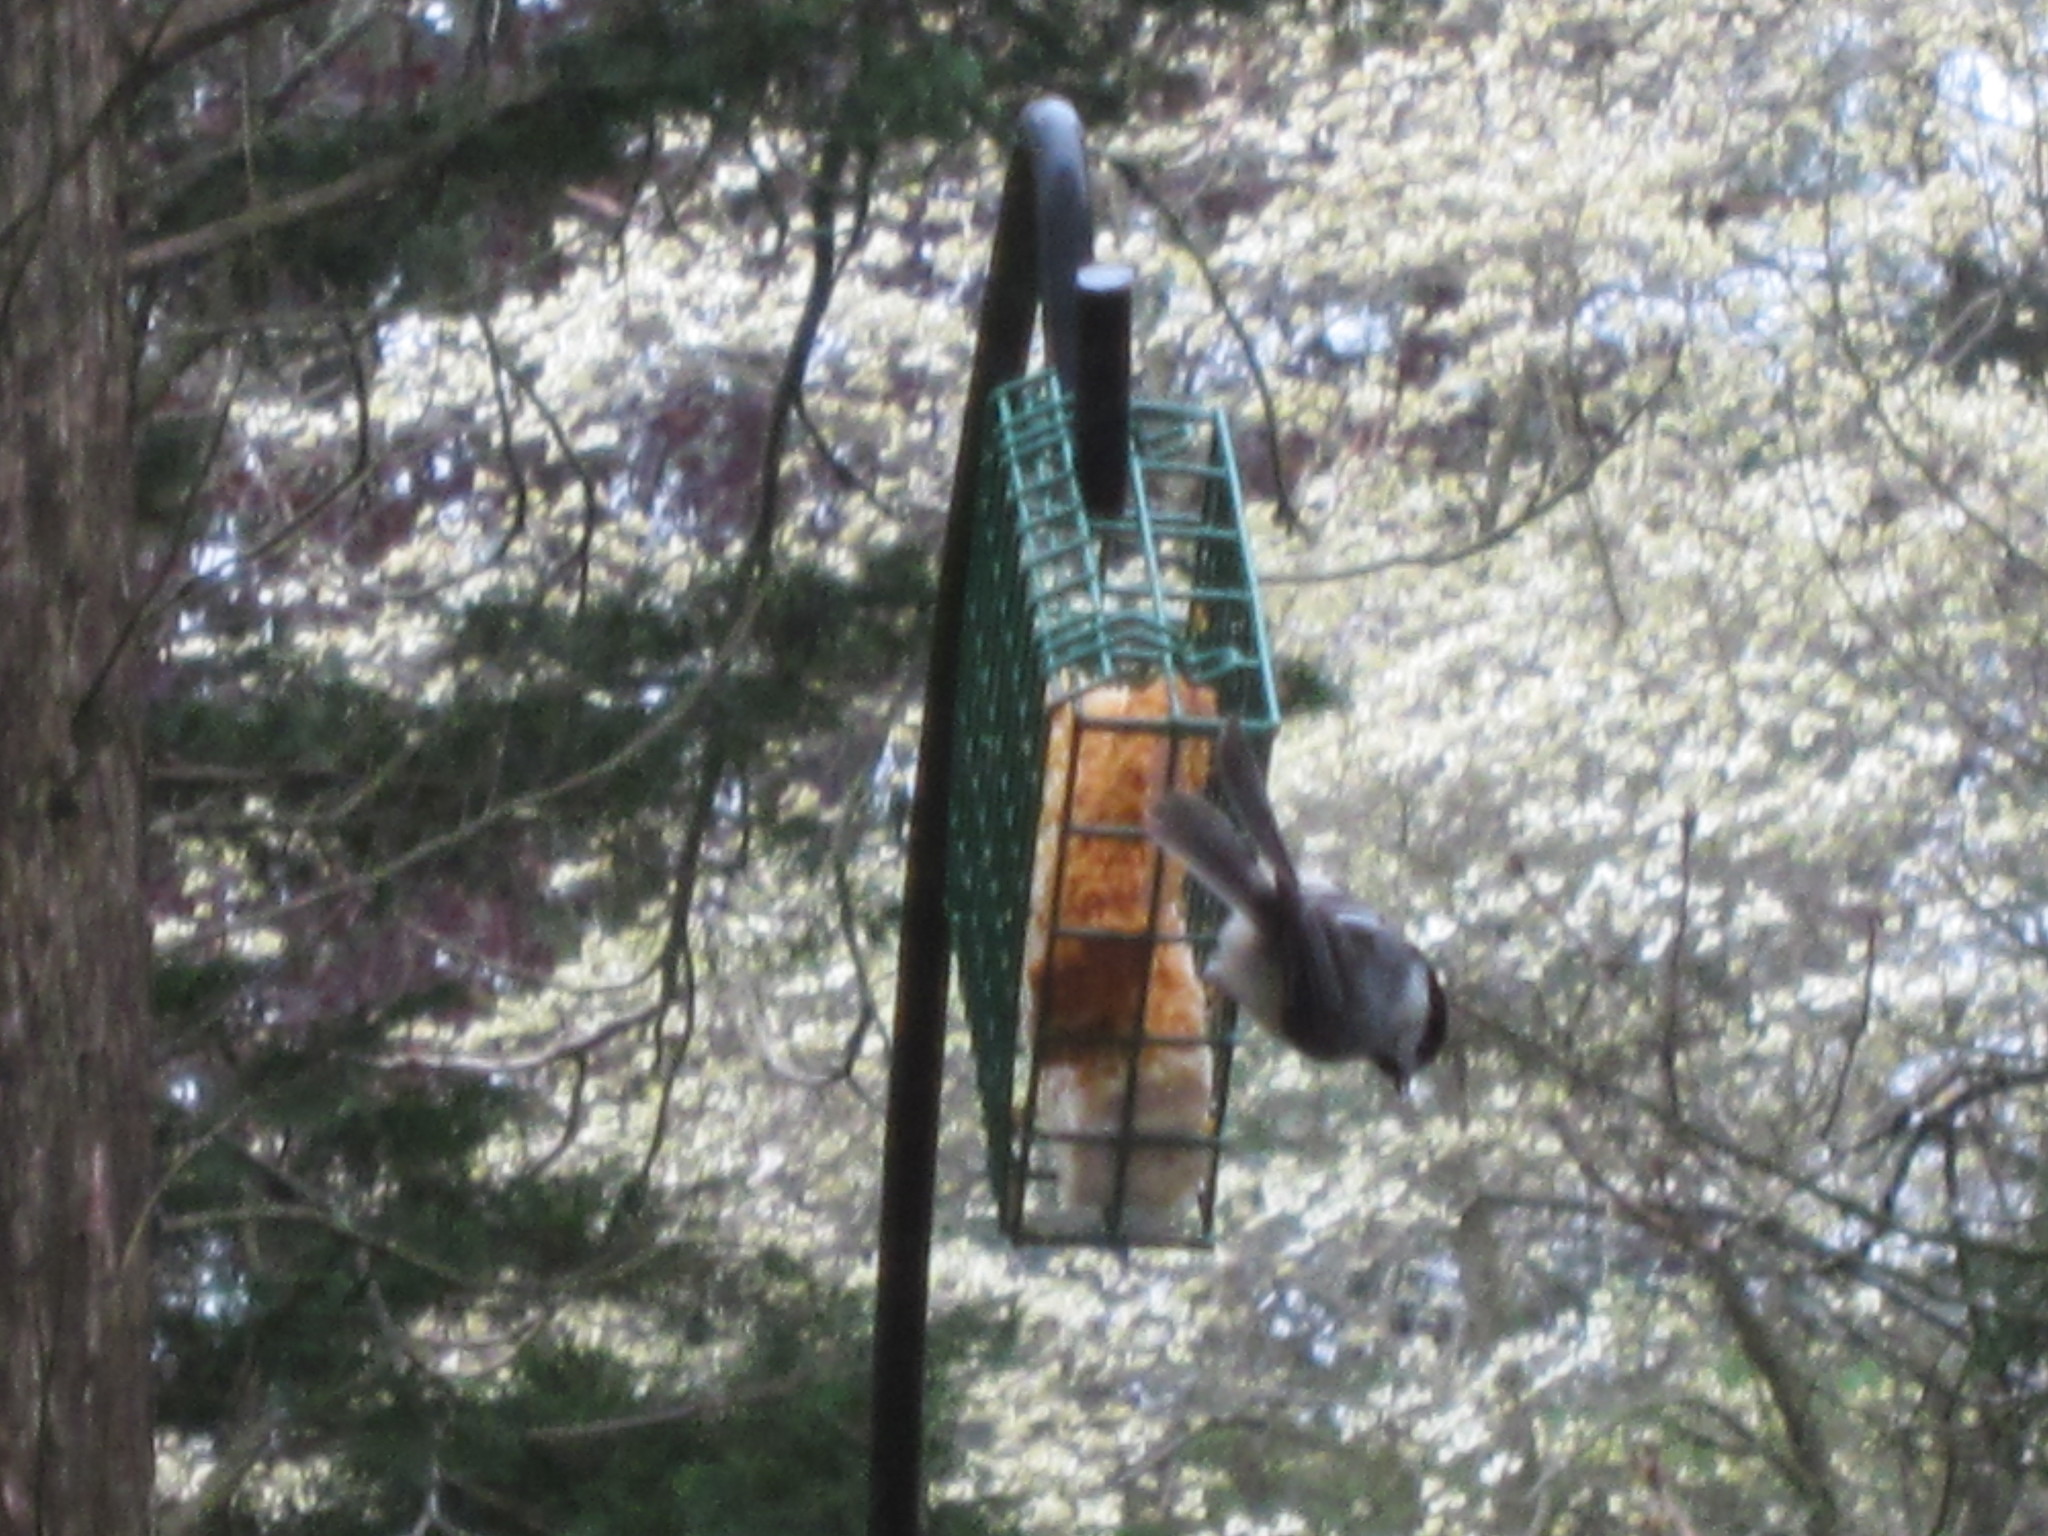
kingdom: Animalia
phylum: Chordata
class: Aves
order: Passeriformes
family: Paridae
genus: Poecile
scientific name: Poecile carolinensis
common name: Carolina chickadee
